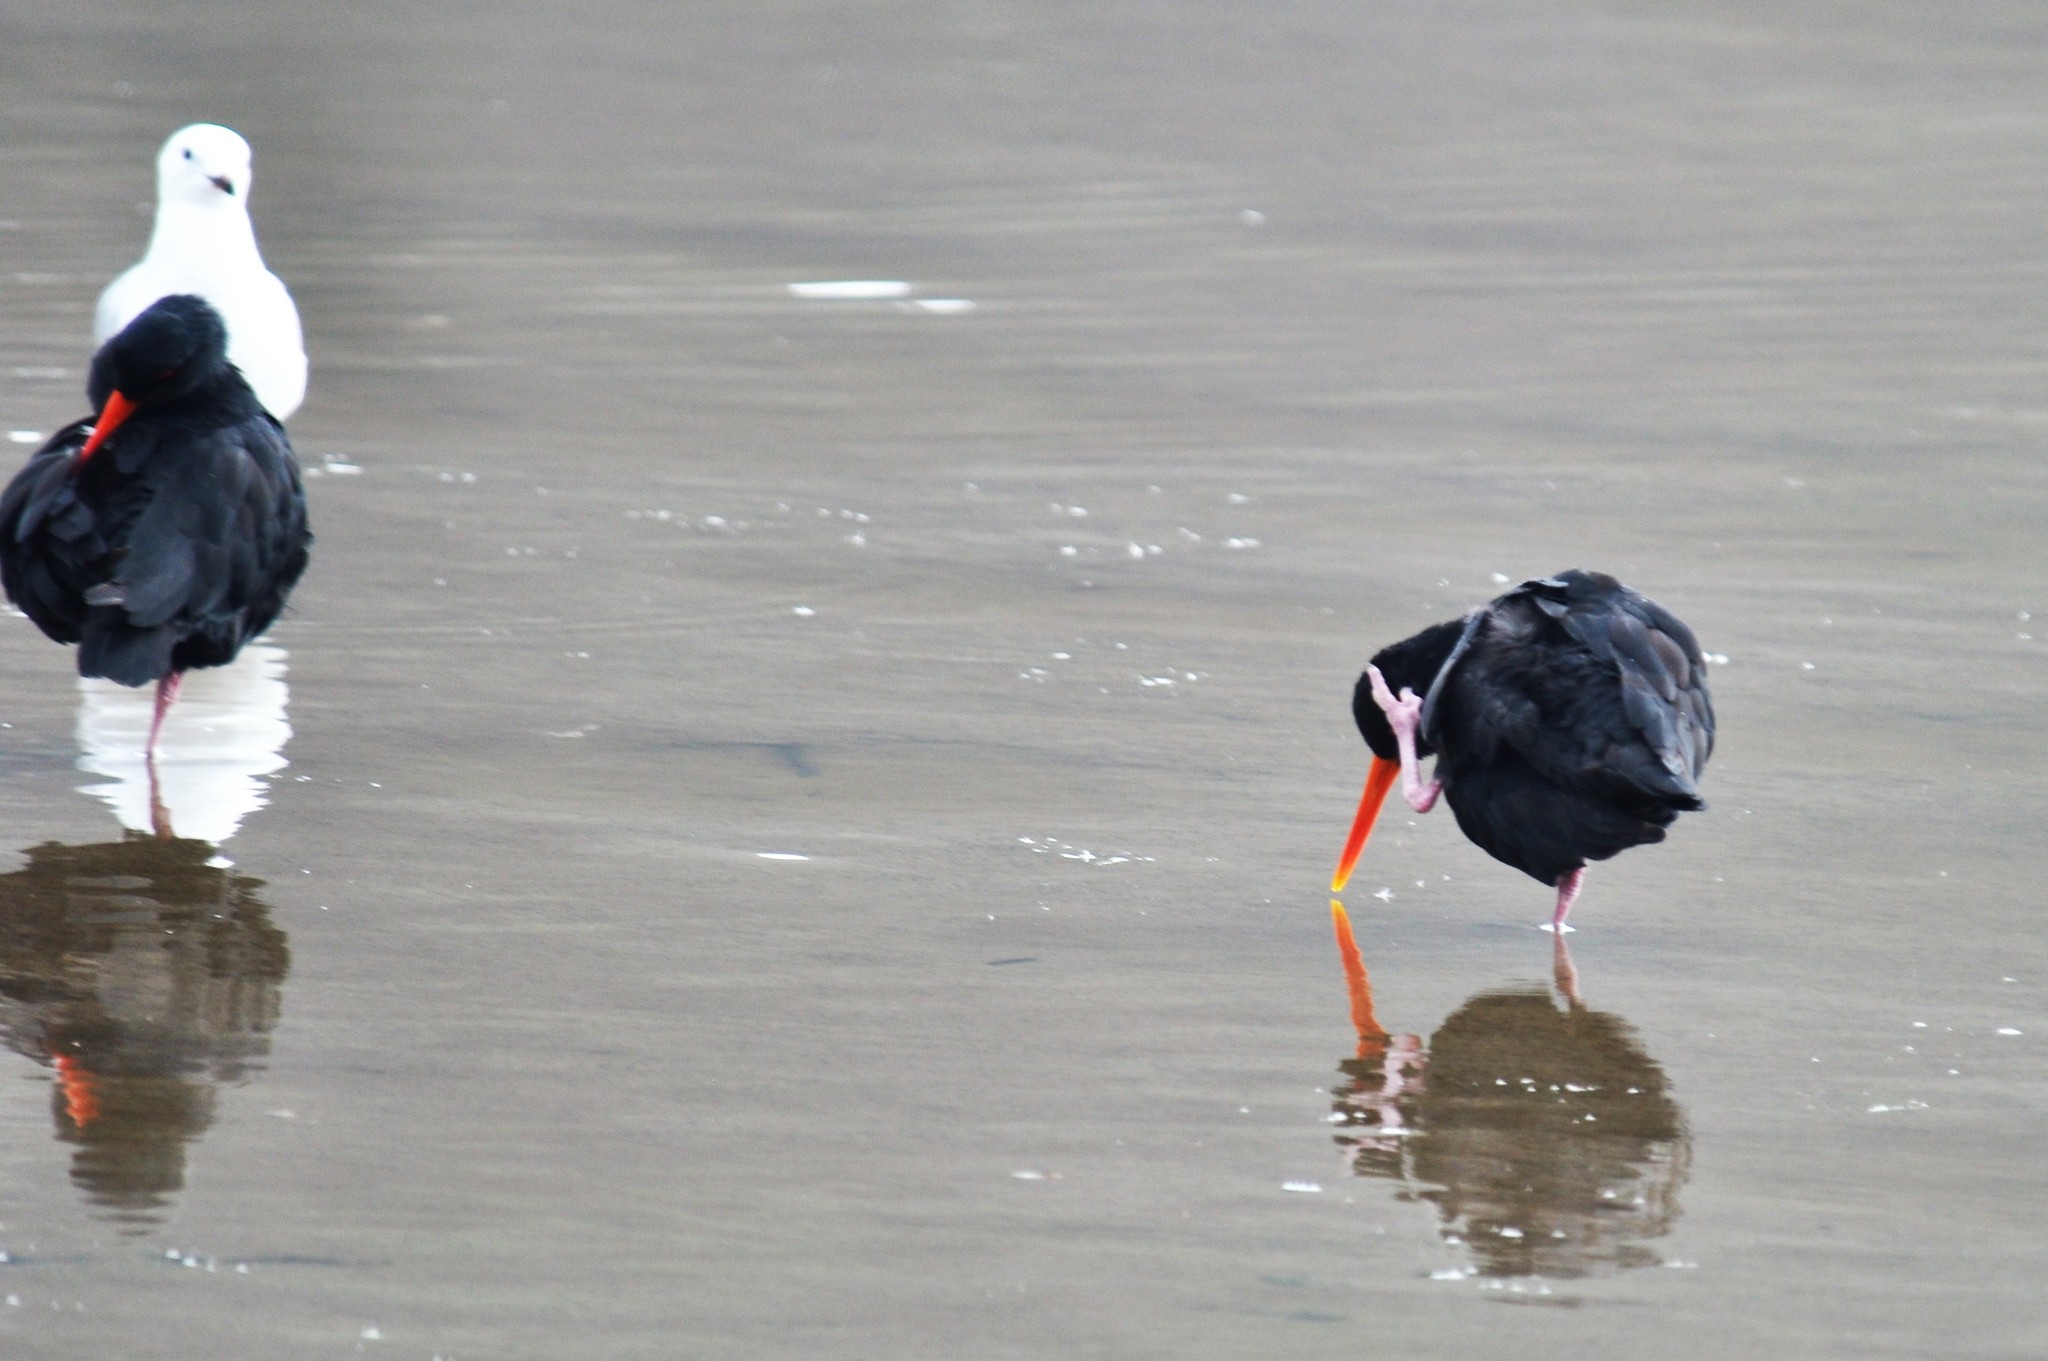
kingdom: Animalia
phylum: Chordata
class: Aves
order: Charadriiformes
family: Haematopodidae
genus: Haematopus
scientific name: Haematopus unicolor
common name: Variable oystercatcher
